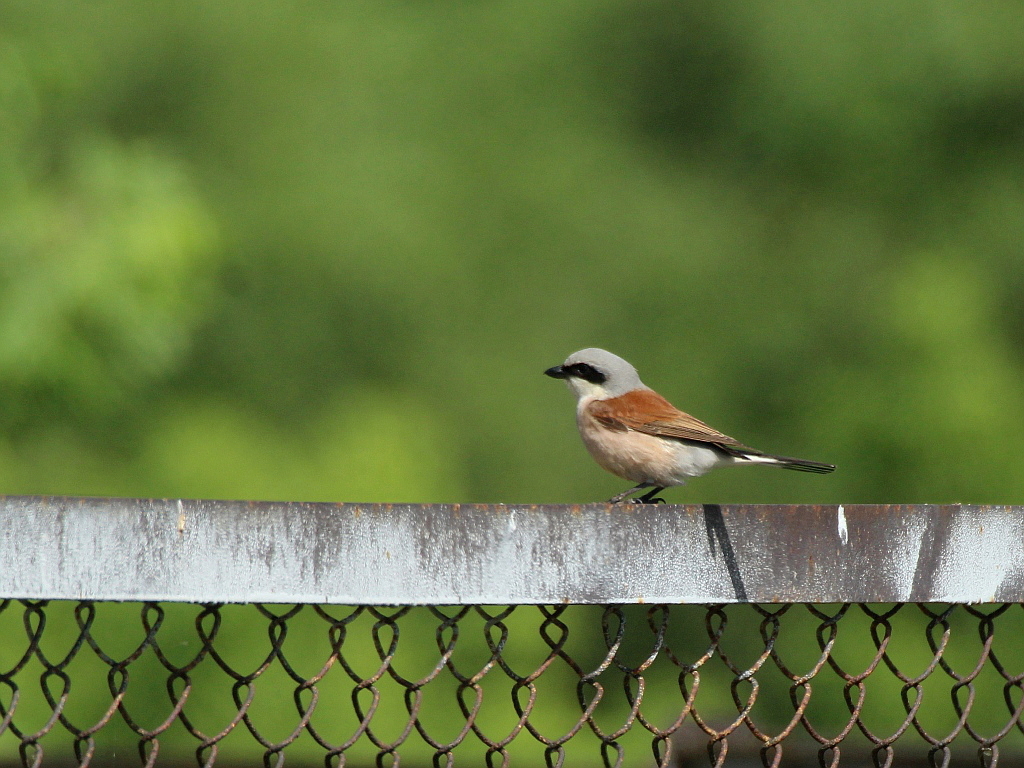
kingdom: Animalia
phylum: Chordata
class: Aves
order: Passeriformes
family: Laniidae
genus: Lanius
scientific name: Lanius collurio
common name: Red-backed shrike
